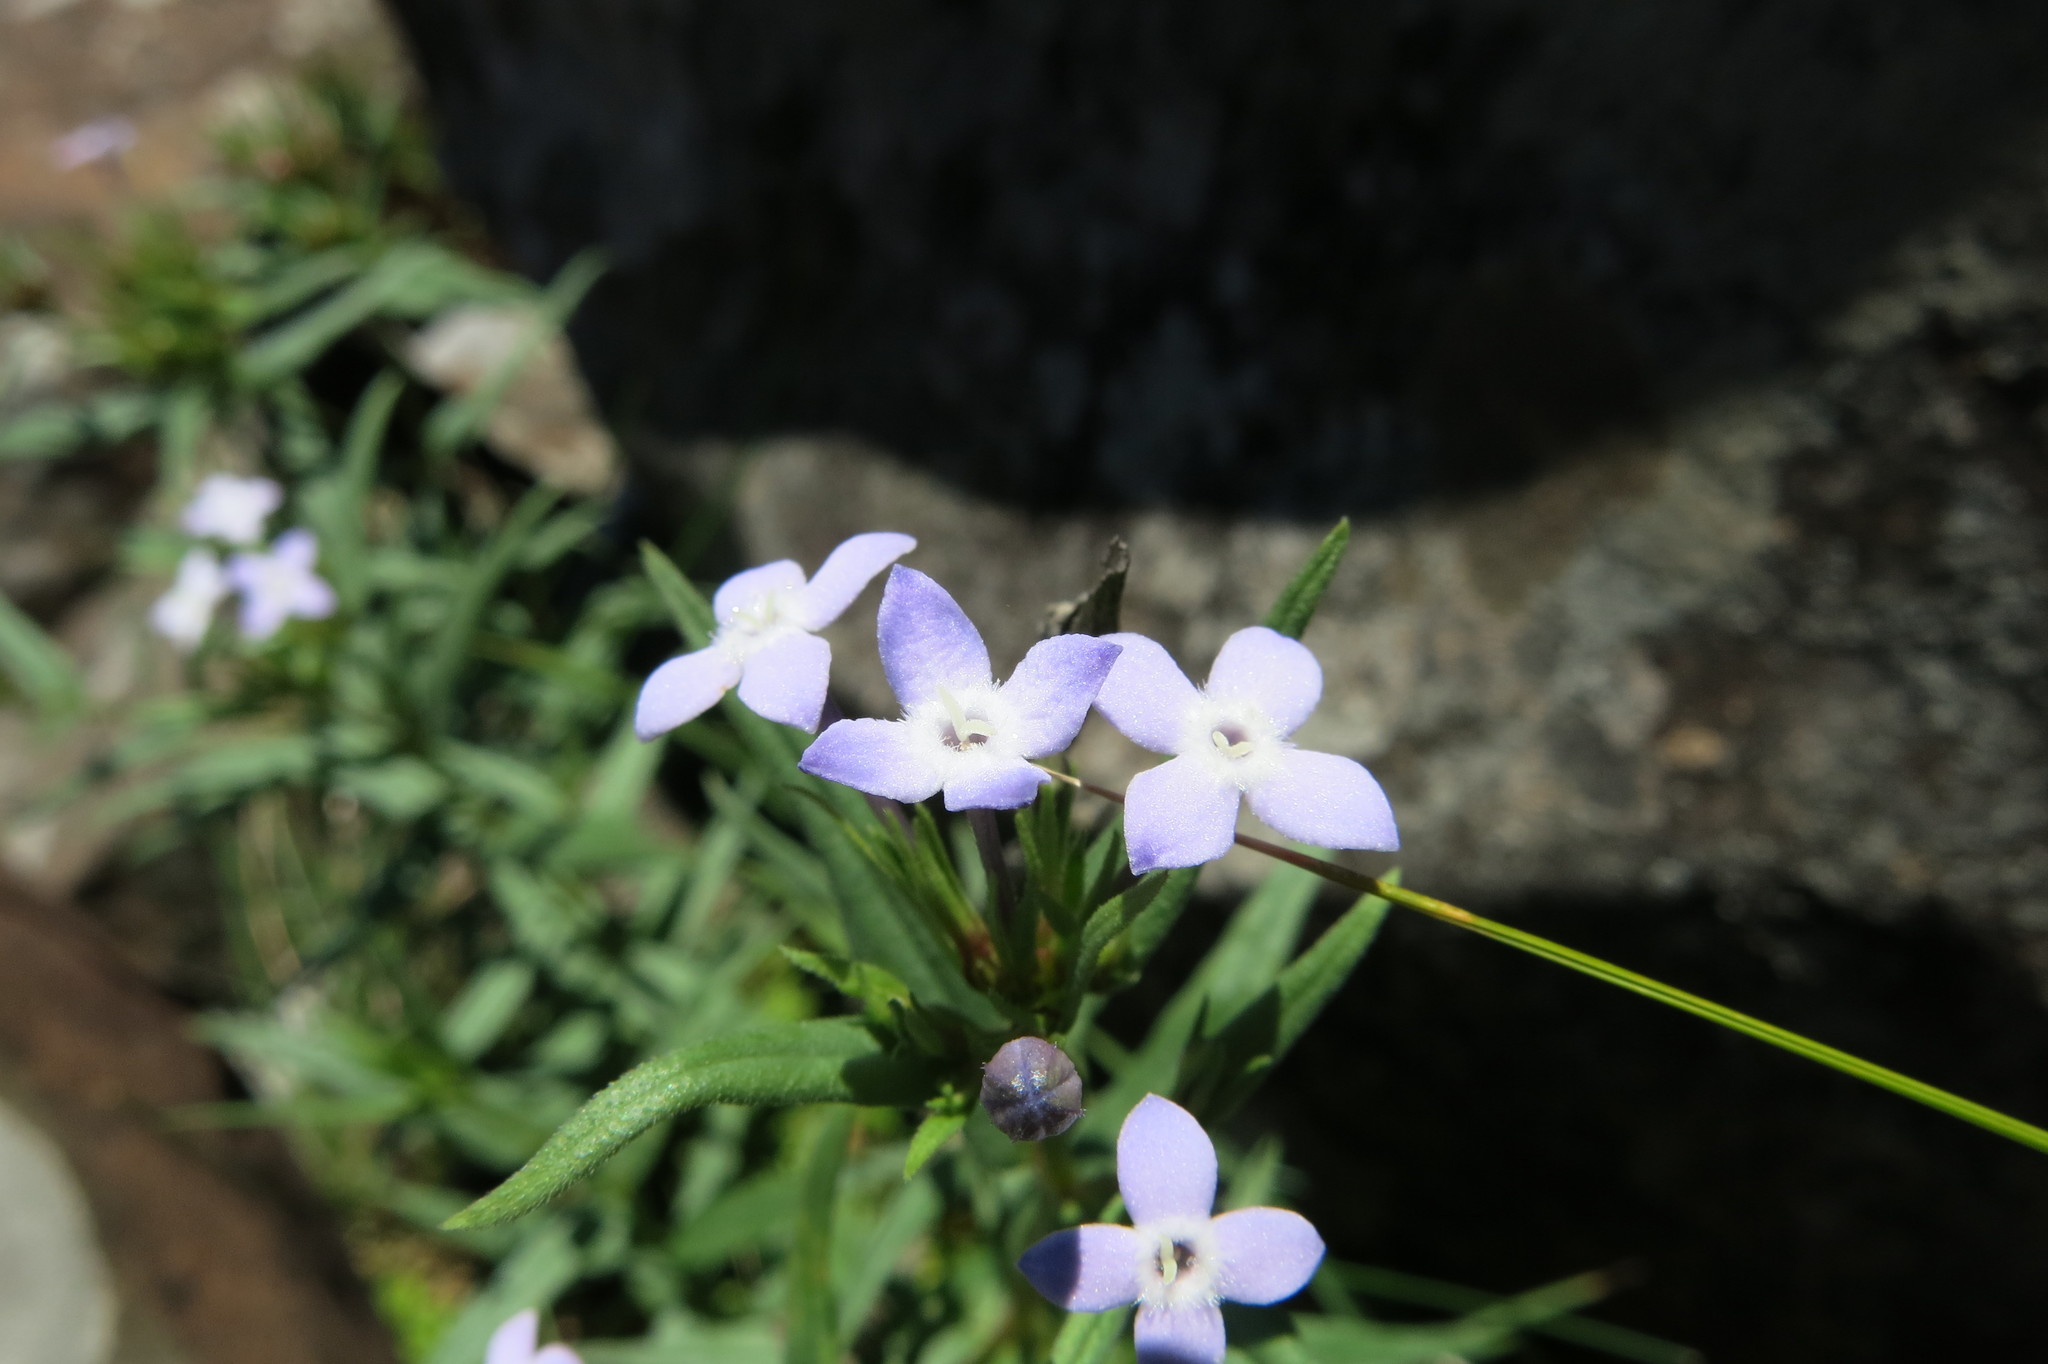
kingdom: Plantae
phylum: Tracheophyta
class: Magnoliopsida
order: Gentianales
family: Rubiaceae
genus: Conostomium
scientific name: Conostomium natalense
